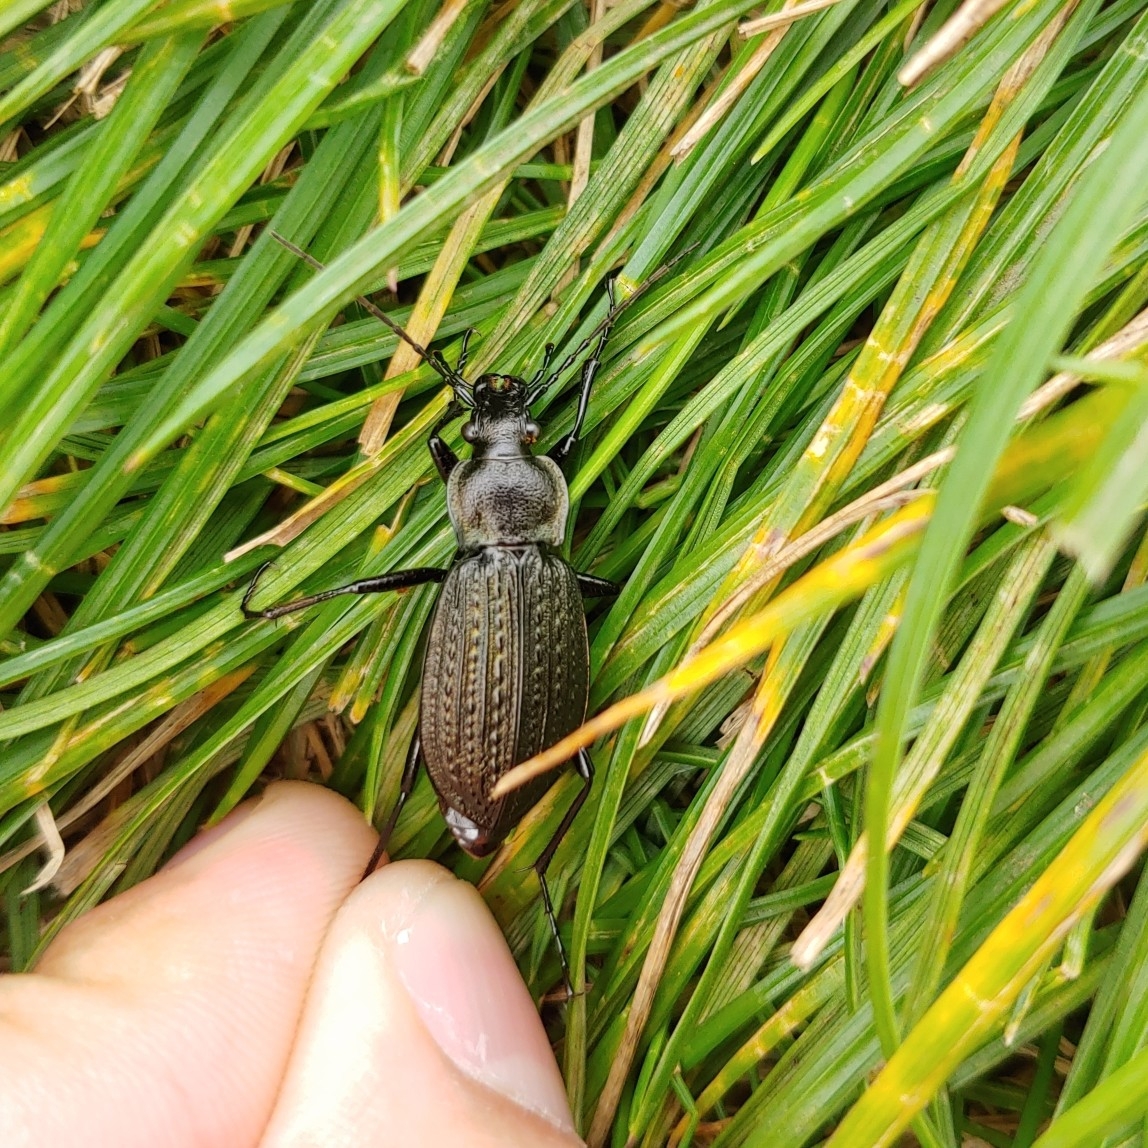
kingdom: Animalia
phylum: Arthropoda
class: Insecta
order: Coleoptera
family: Carabidae
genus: Carabus
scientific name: Carabus granulatus
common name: Granulate ground beetle
